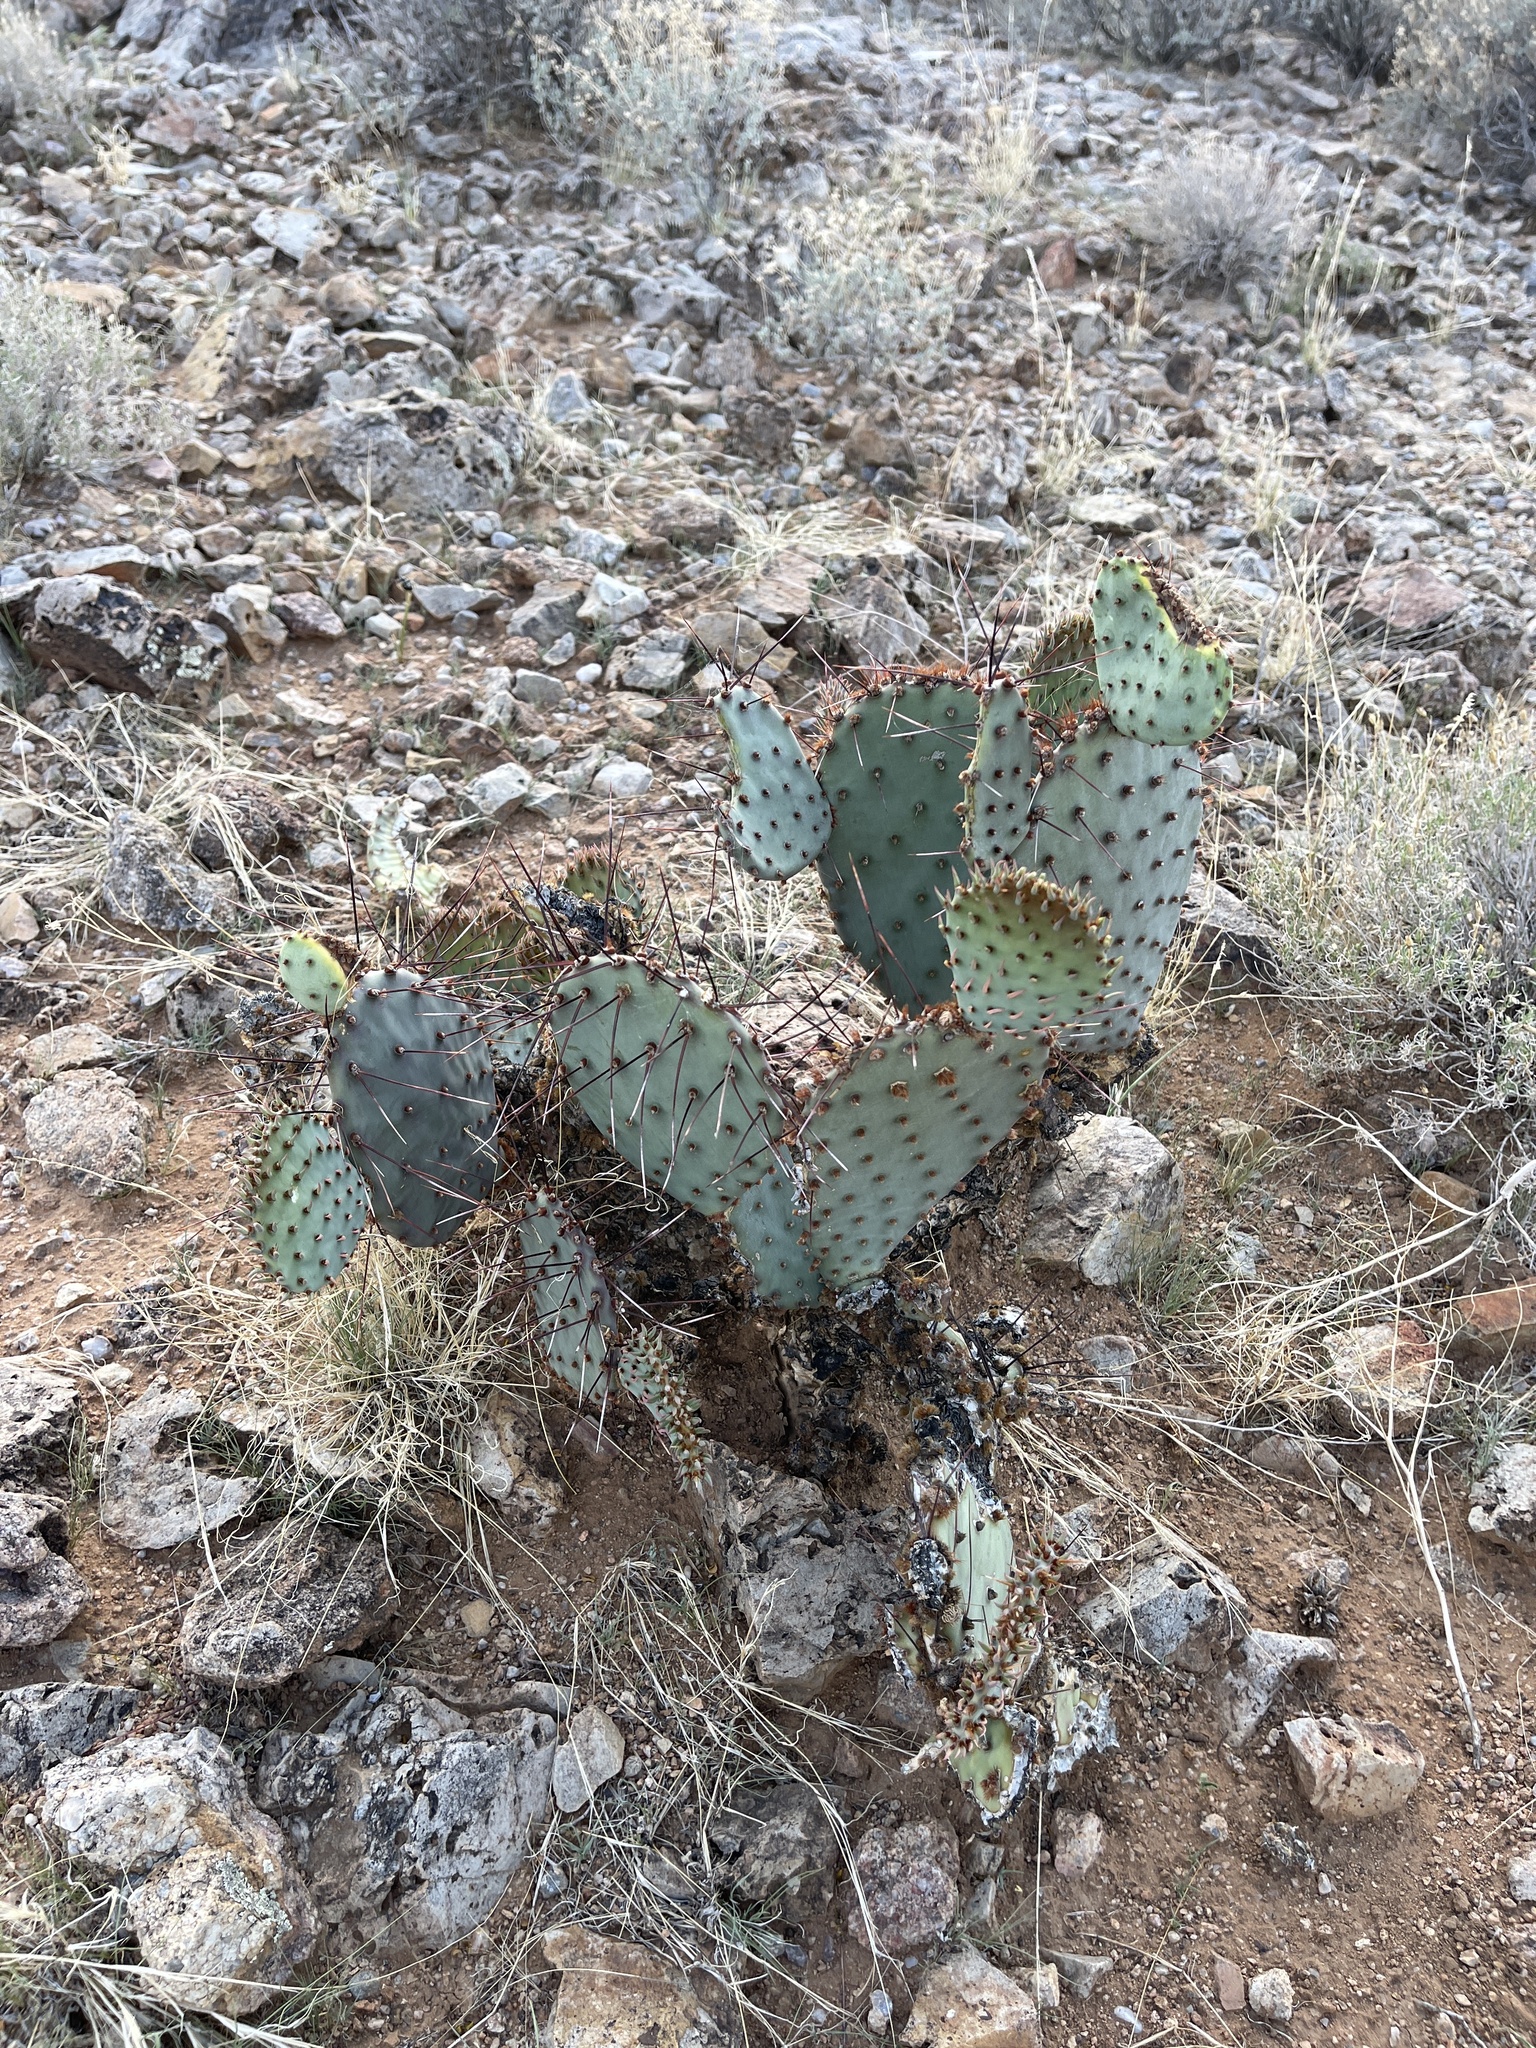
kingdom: Plantae
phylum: Tracheophyta
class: Magnoliopsida
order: Caryophyllales
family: Cactaceae
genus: Opuntia
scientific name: Opuntia macrocentra
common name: Purple prickly-pear
